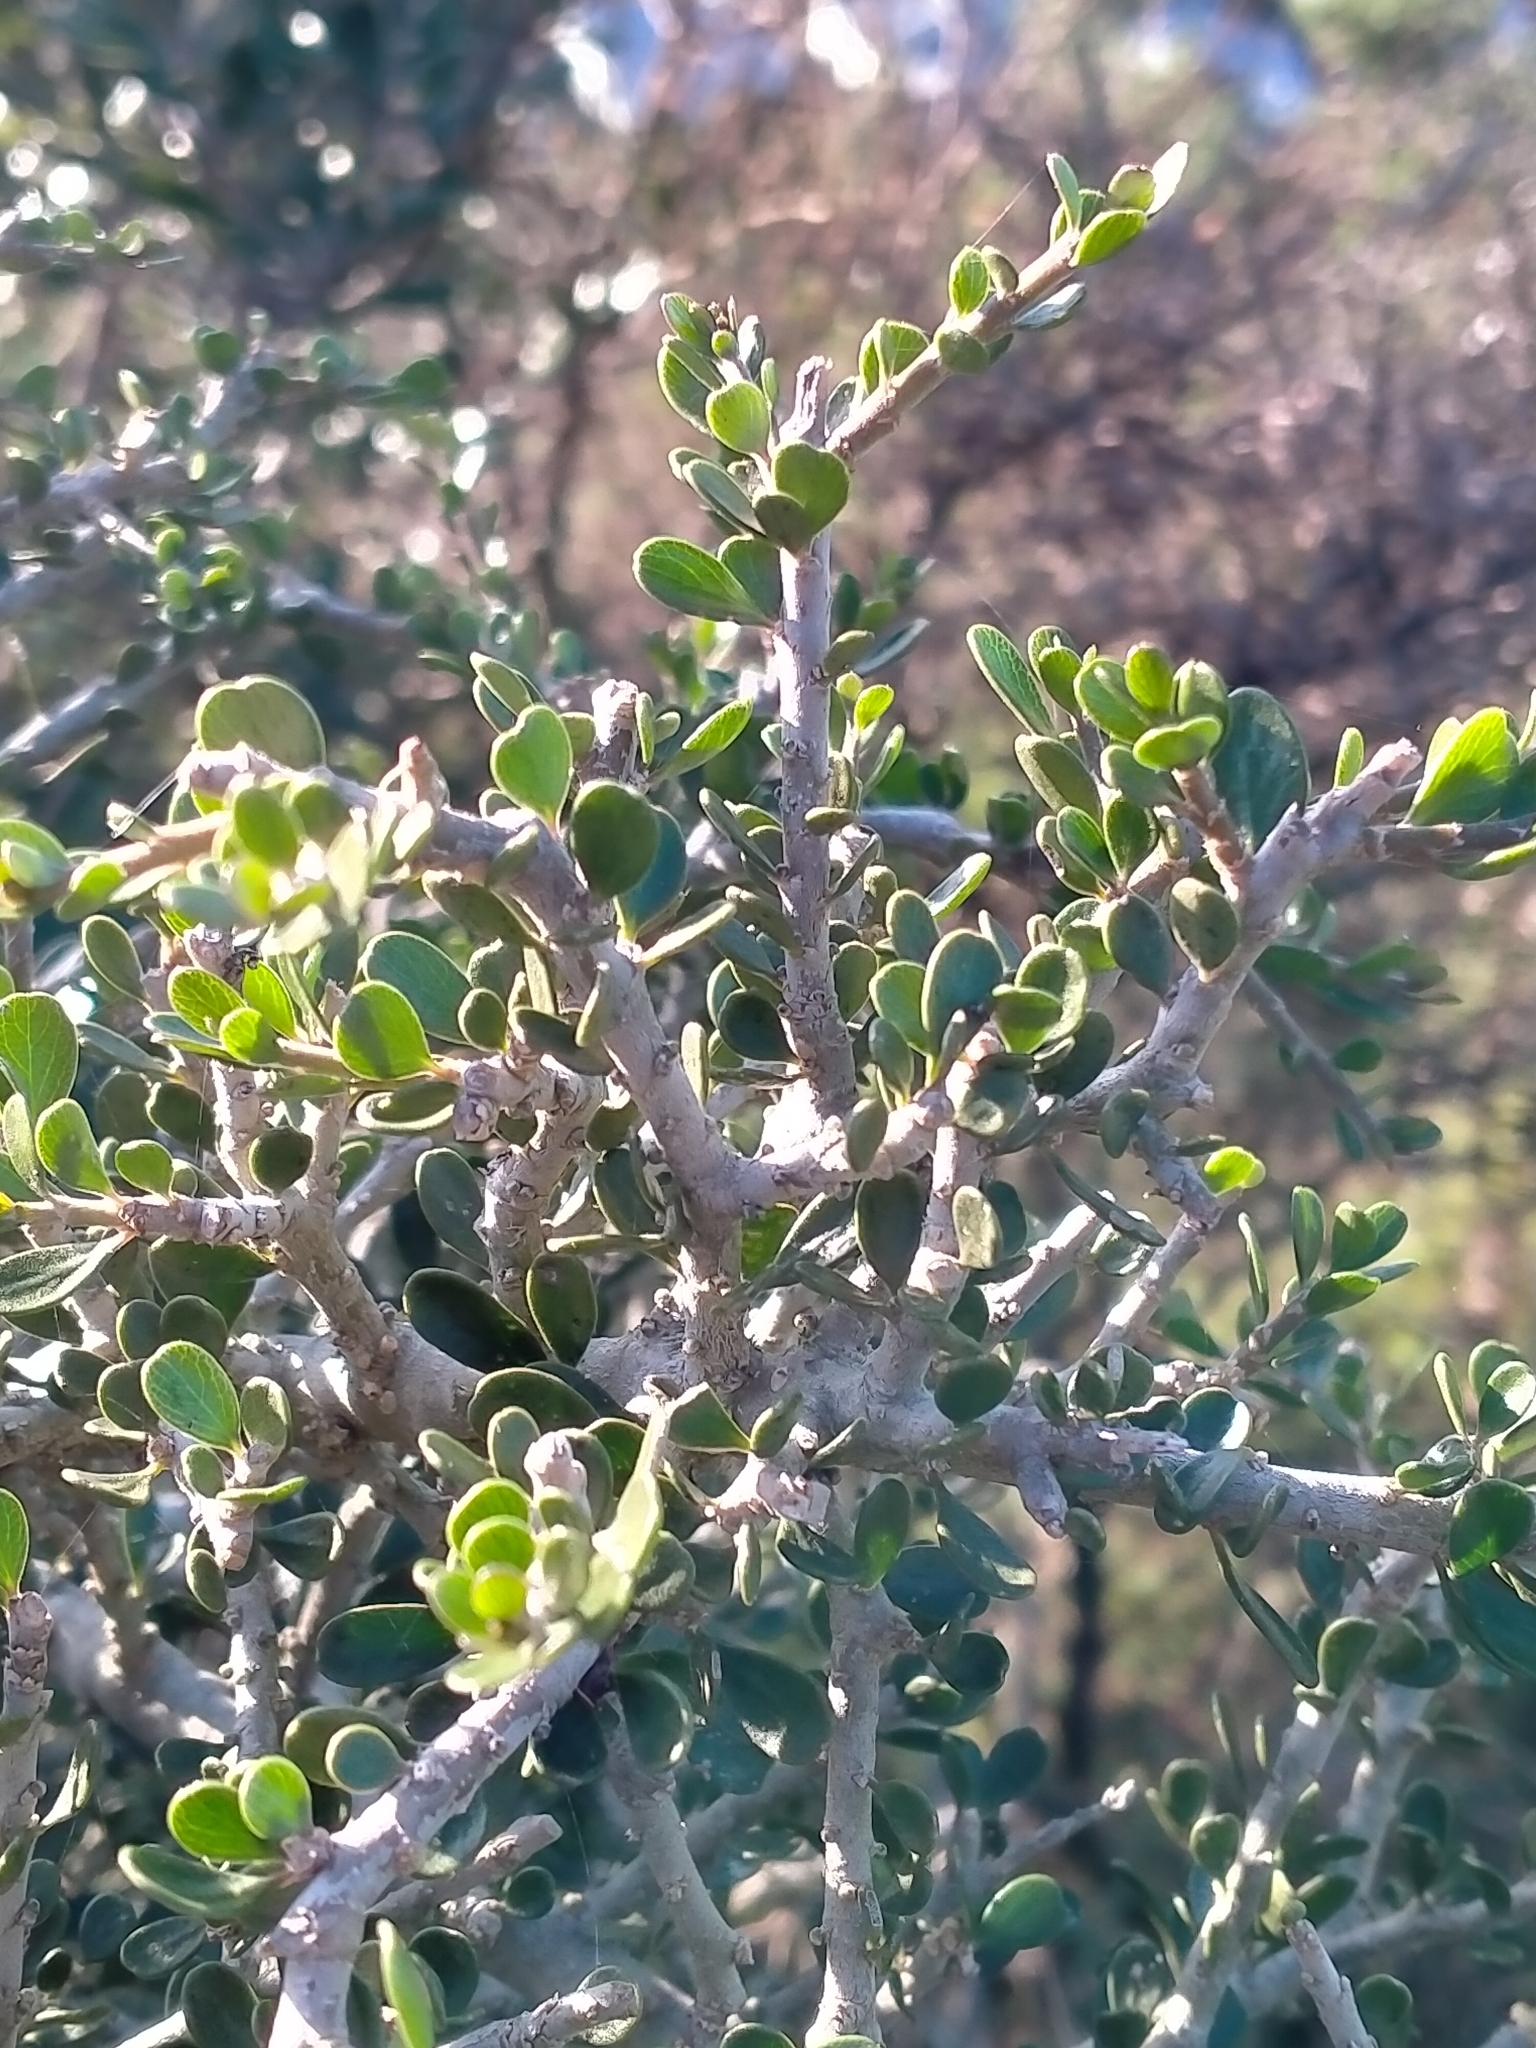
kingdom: Plantae
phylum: Tracheophyta
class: Magnoliopsida
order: Malpighiales
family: Violaceae
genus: Melicytus
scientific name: Melicytus crassifolius
